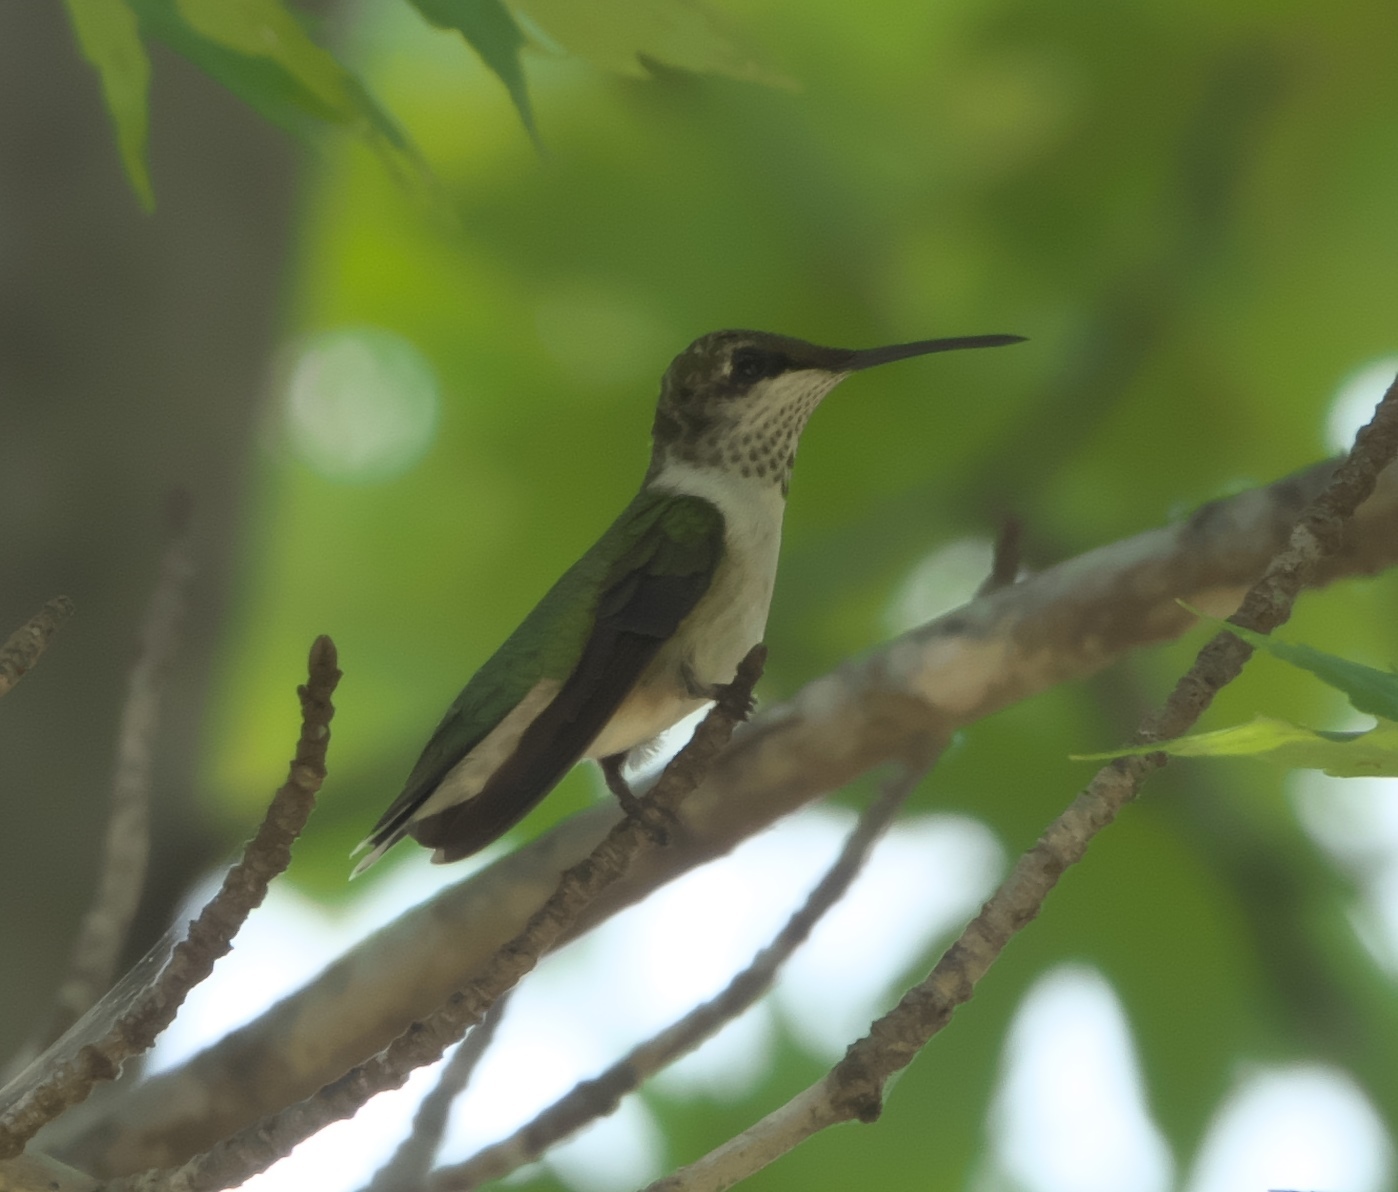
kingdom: Animalia
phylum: Chordata
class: Aves
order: Apodiformes
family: Trochilidae
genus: Archilochus
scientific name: Archilochus alexandri
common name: Black-chinned hummingbird
